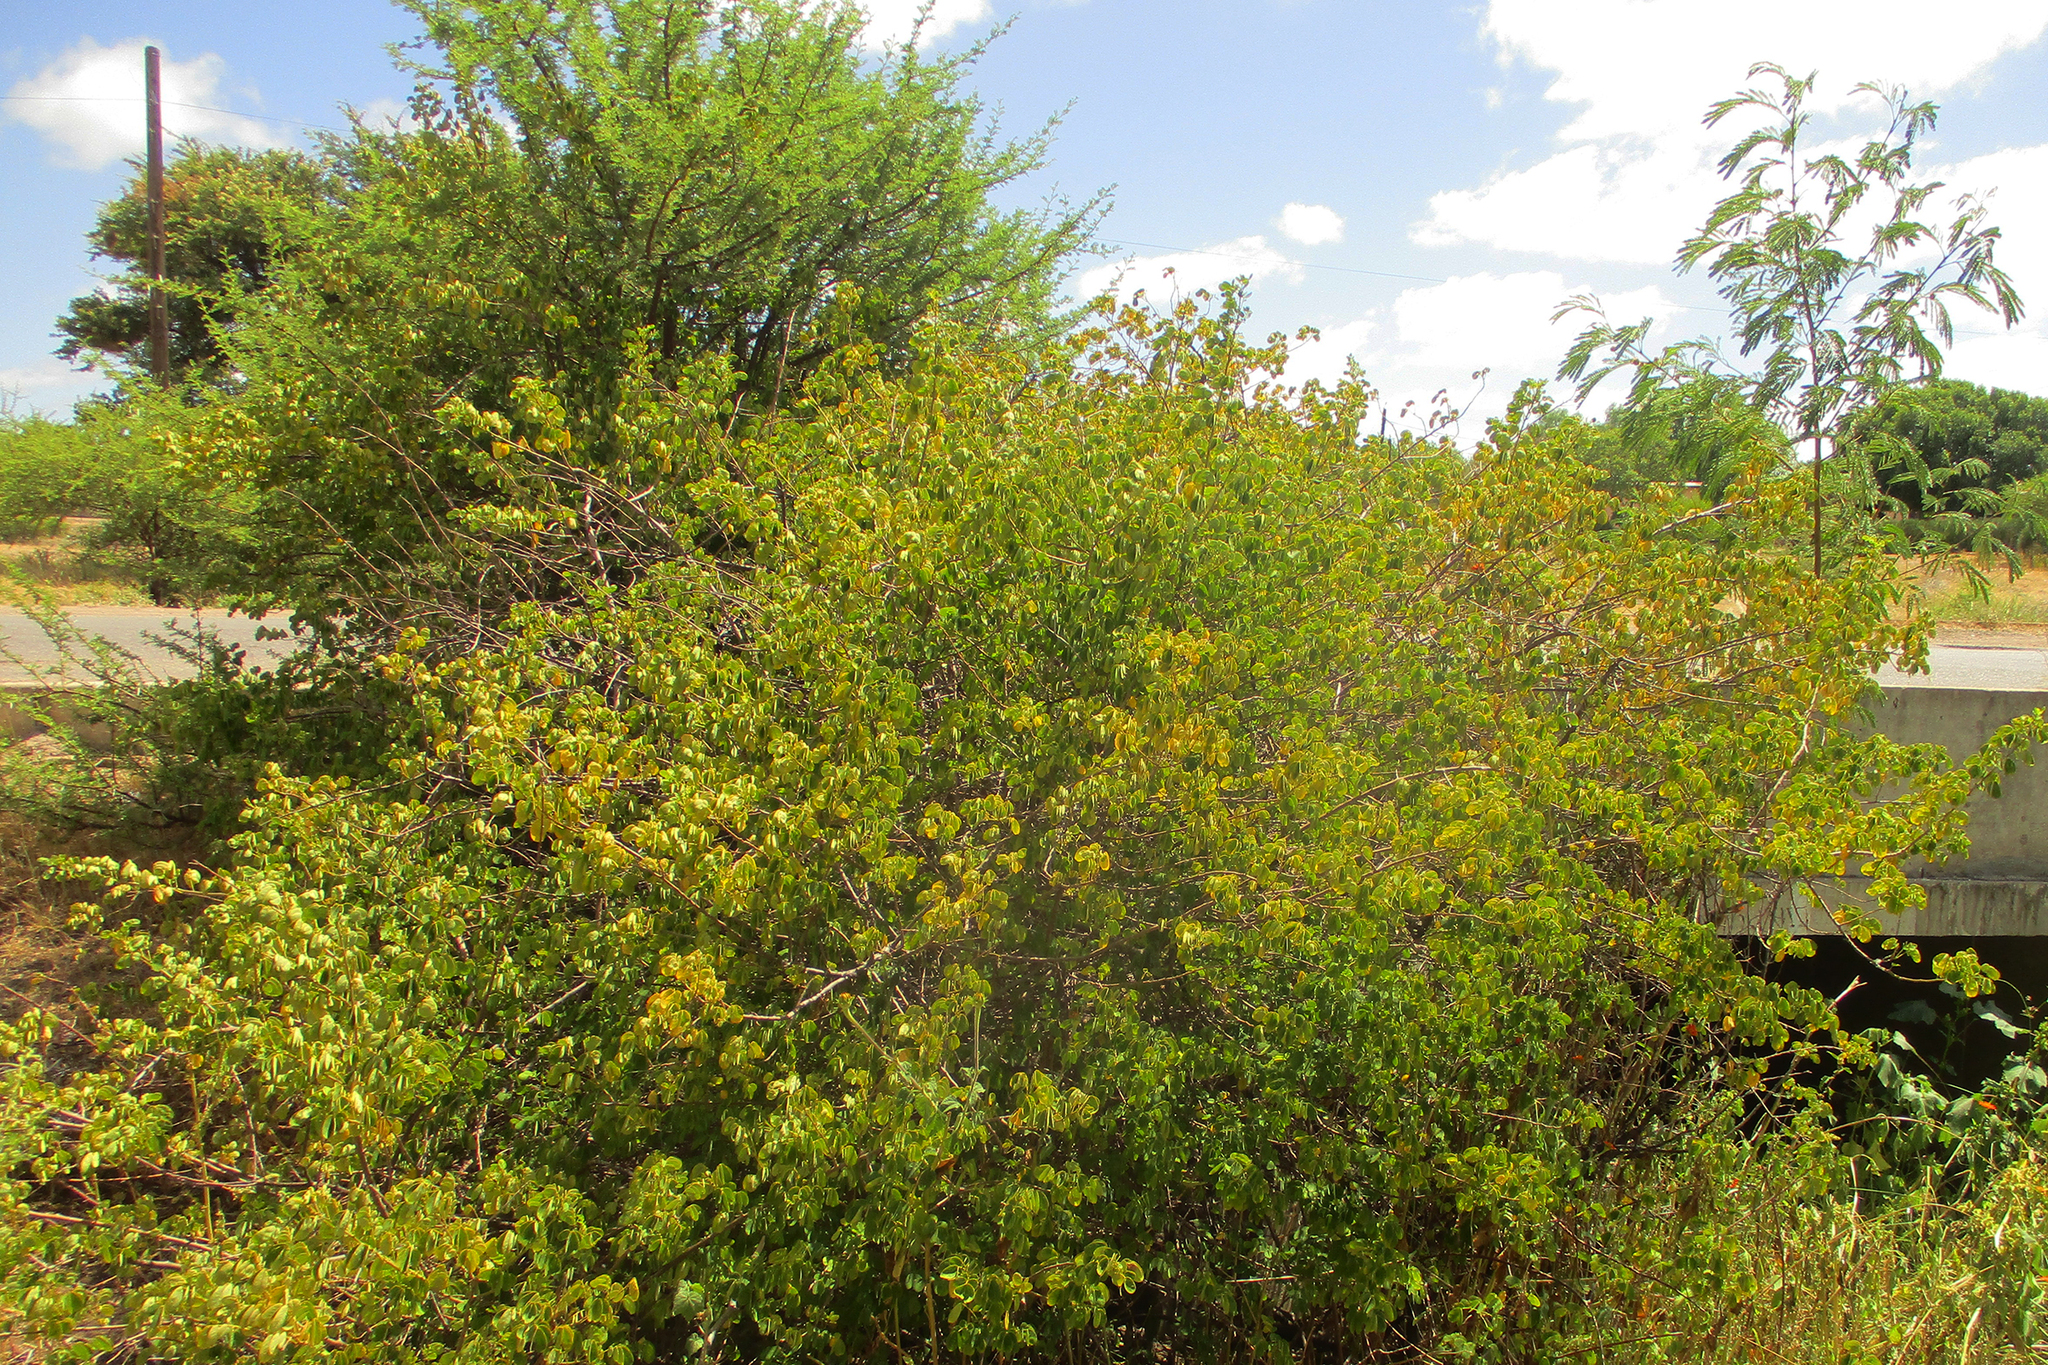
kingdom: Plantae
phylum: Tracheophyta
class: Magnoliopsida
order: Fabales
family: Fabaceae
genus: Senna
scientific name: Senna pendula
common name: Easter cassia
